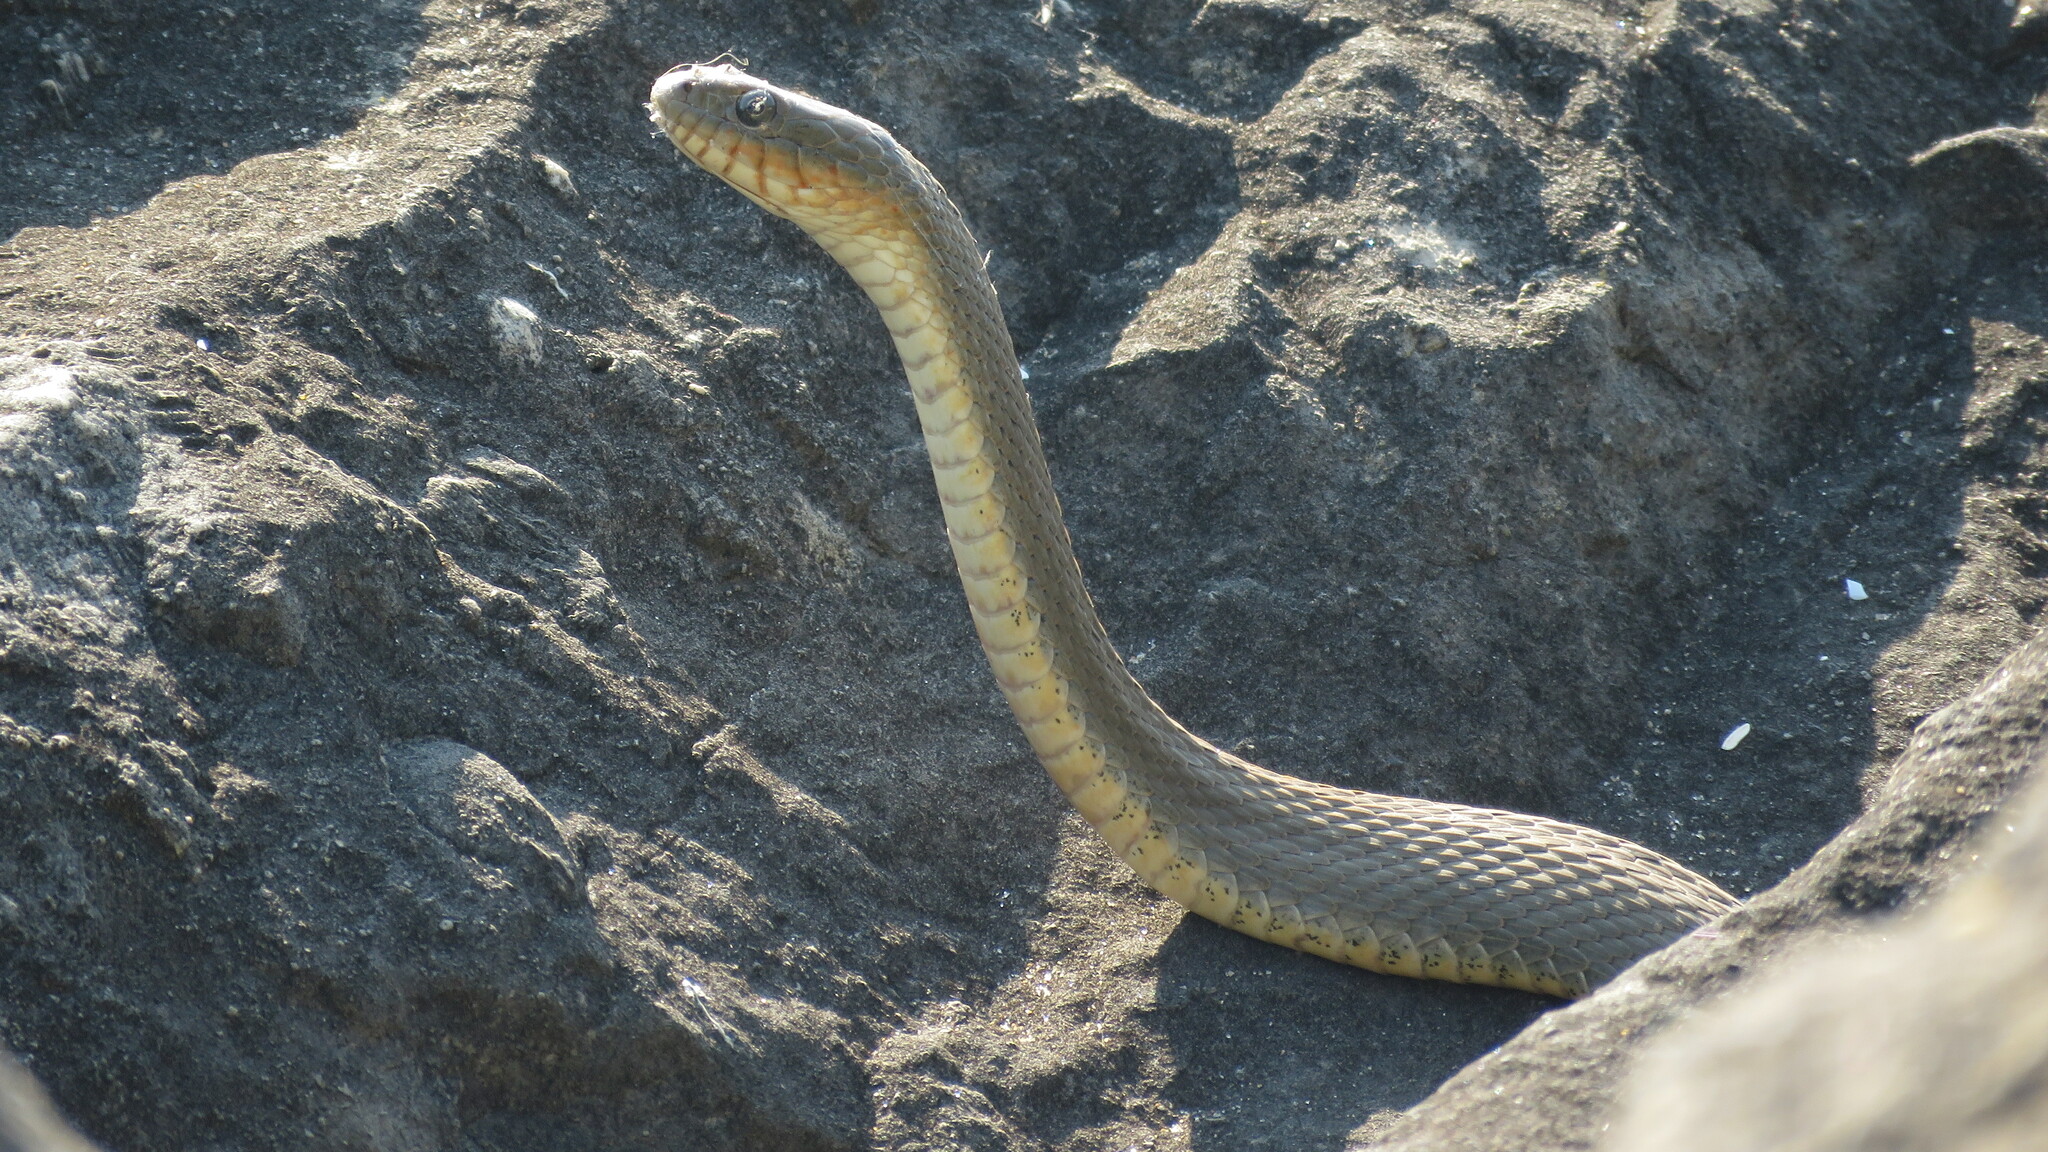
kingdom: Animalia
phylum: Chordata
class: Squamata
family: Colubridae
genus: Nerodia
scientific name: Nerodia sipedon
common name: Northern water snake
